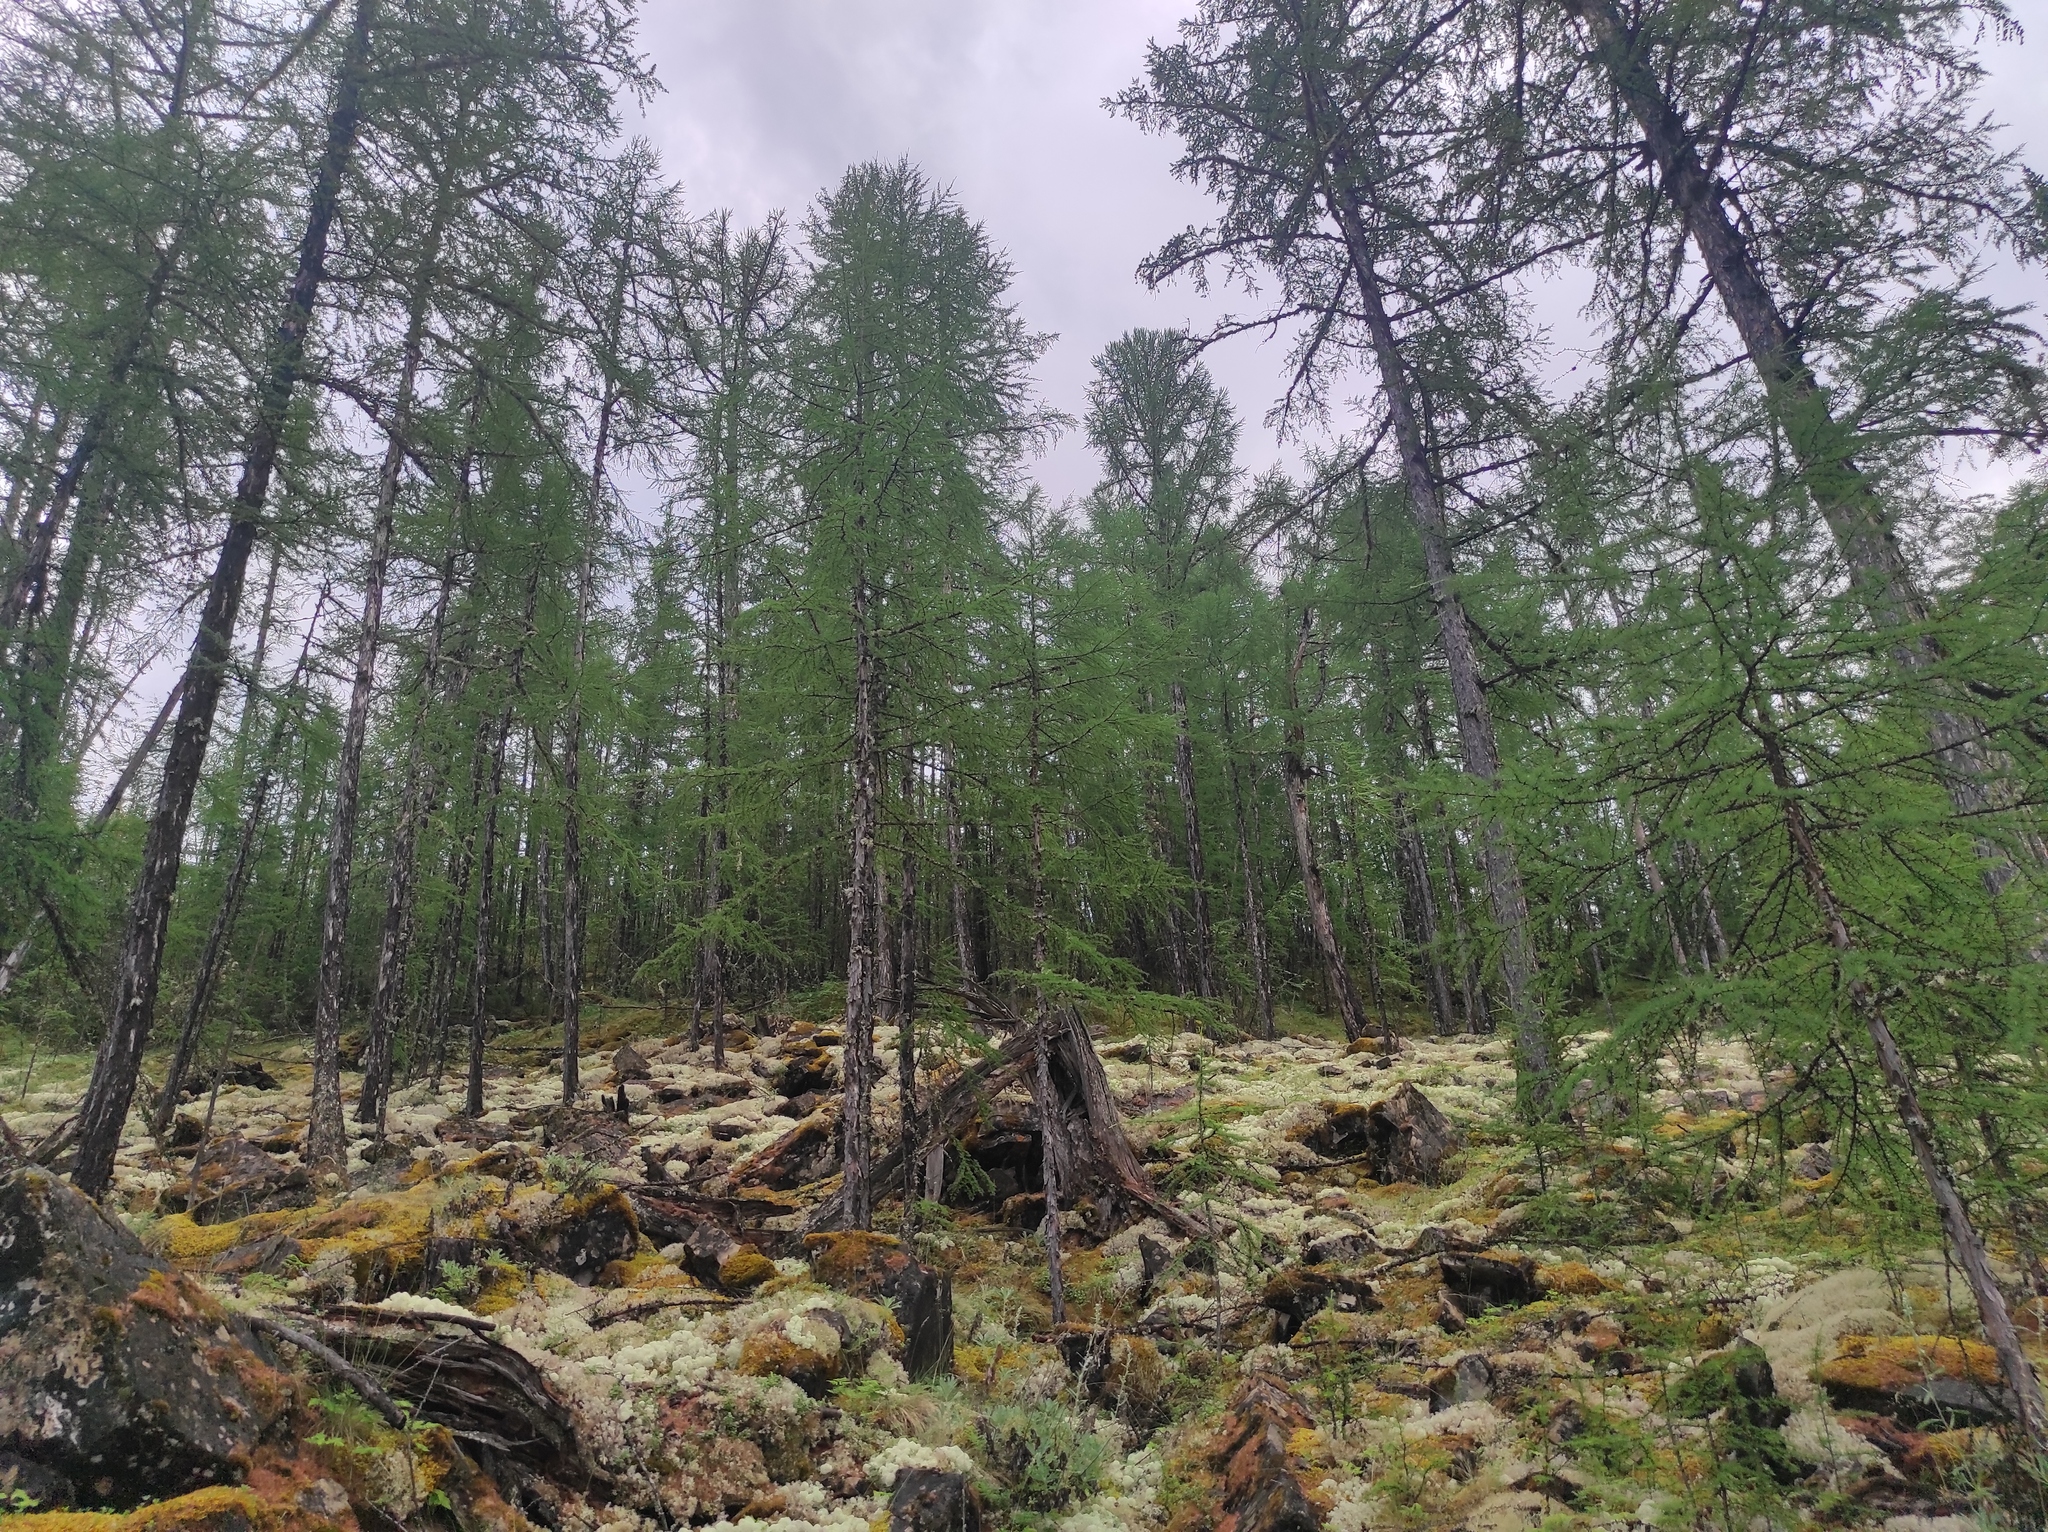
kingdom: Plantae
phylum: Tracheophyta
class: Pinopsida
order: Pinales
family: Pinaceae
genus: Larix
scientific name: Larix gmelinii
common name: Dahurian larch
